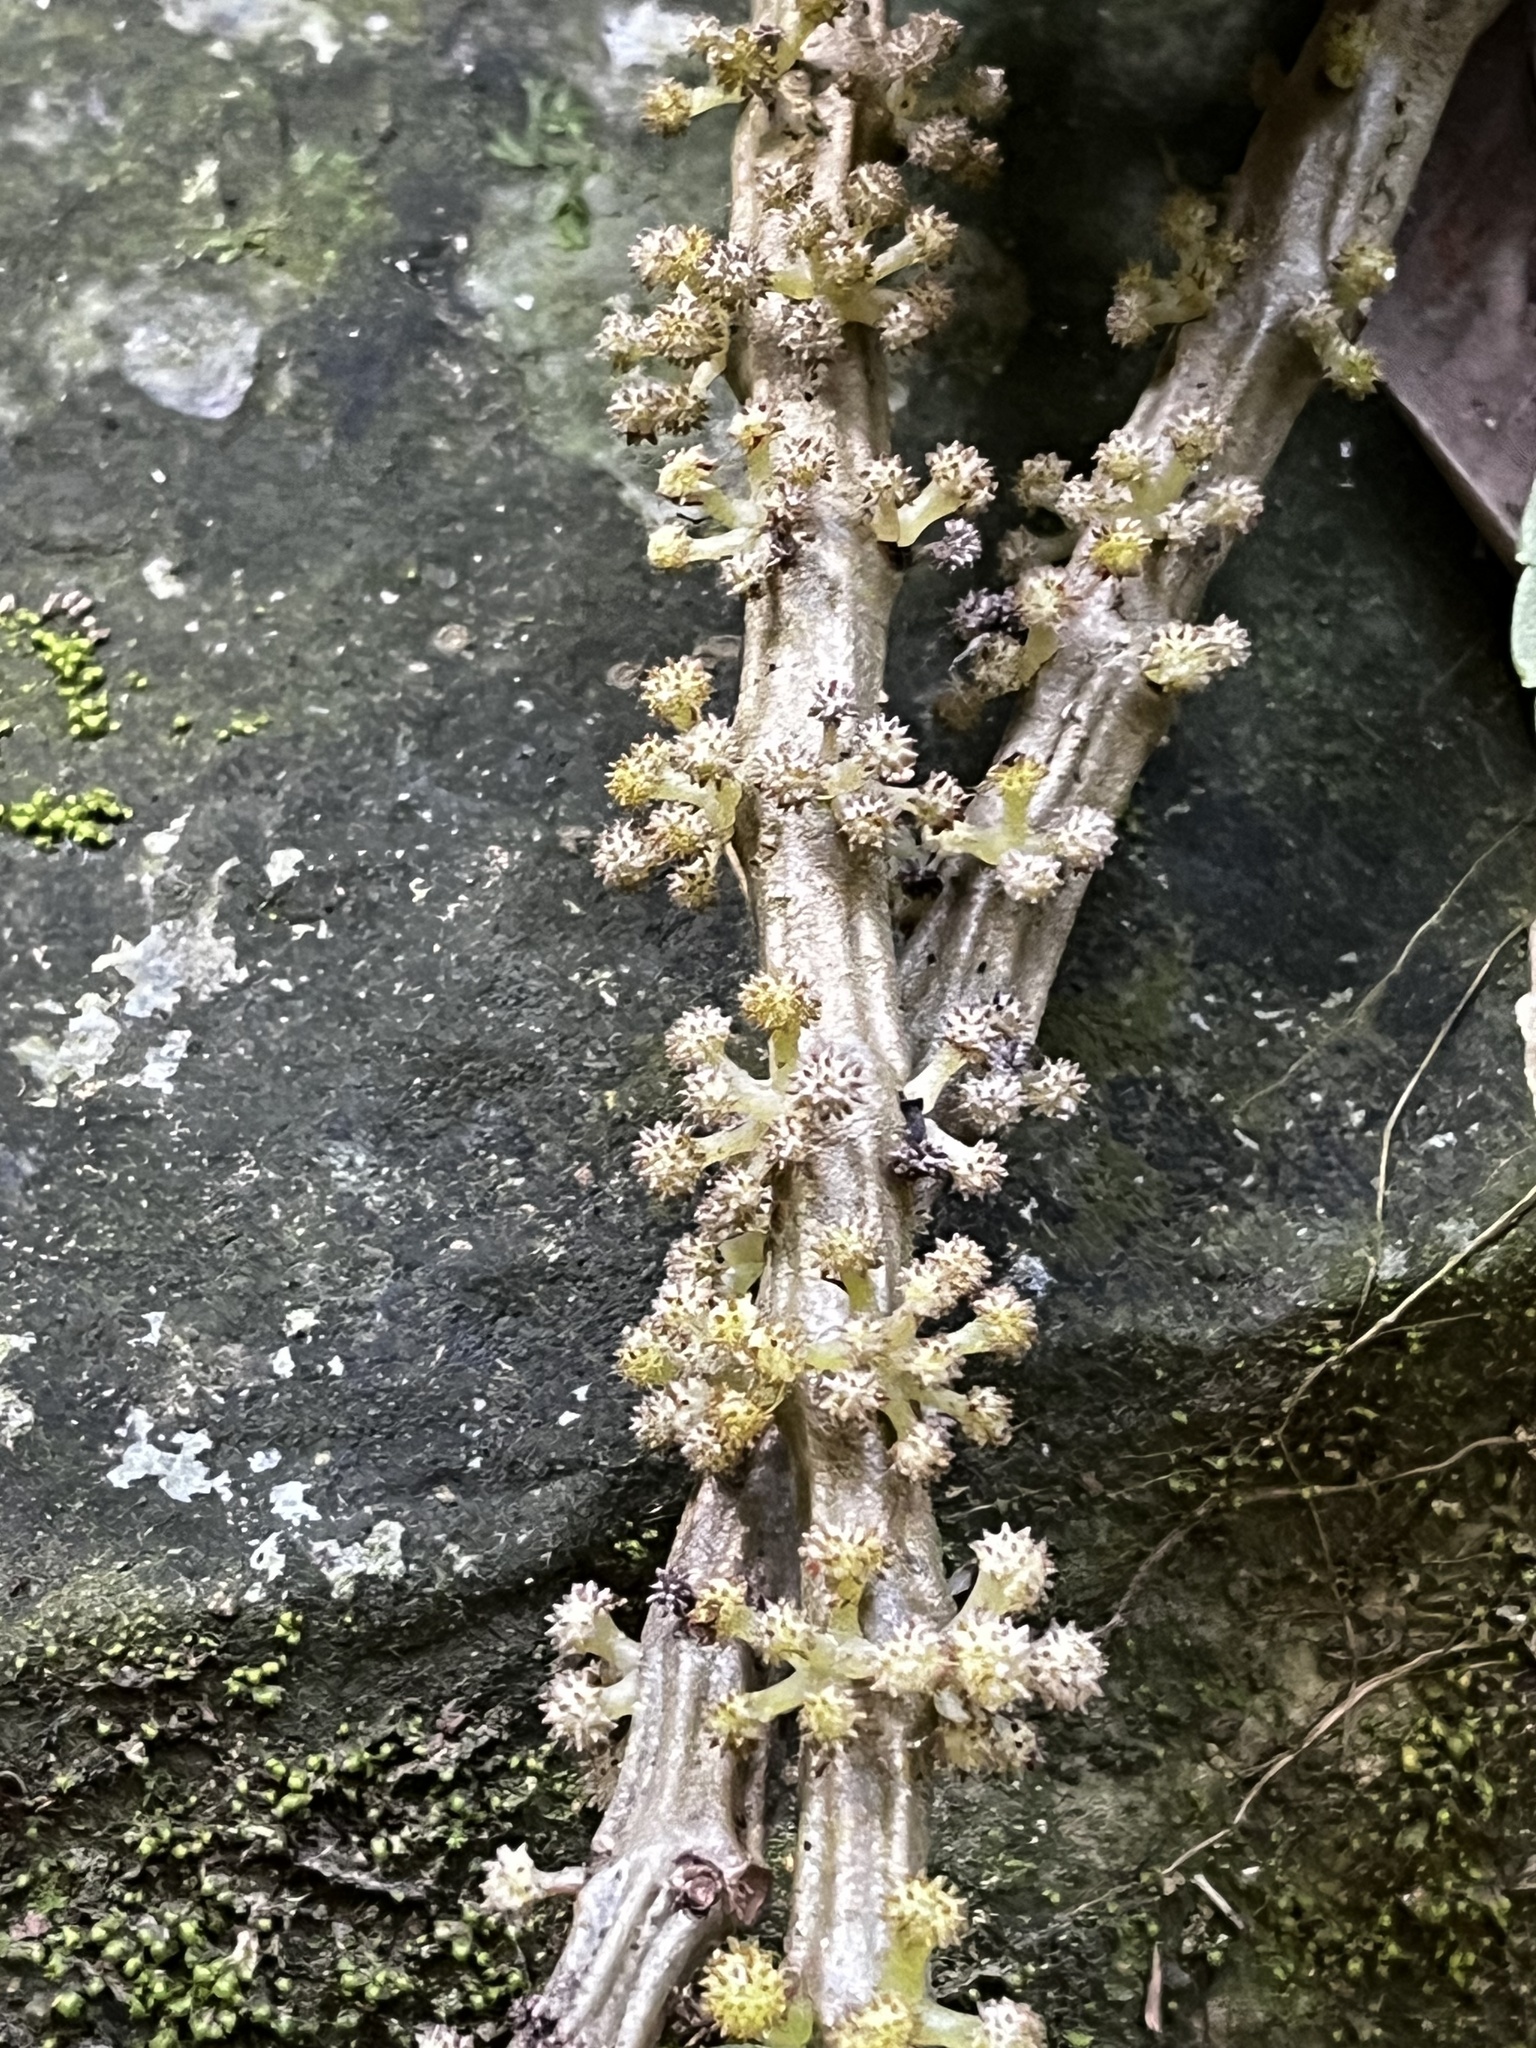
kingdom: Plantae
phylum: Tracheophyta
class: Magnoliopsida
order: Rosales
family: Urticaceae
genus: Procris
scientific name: Procris
